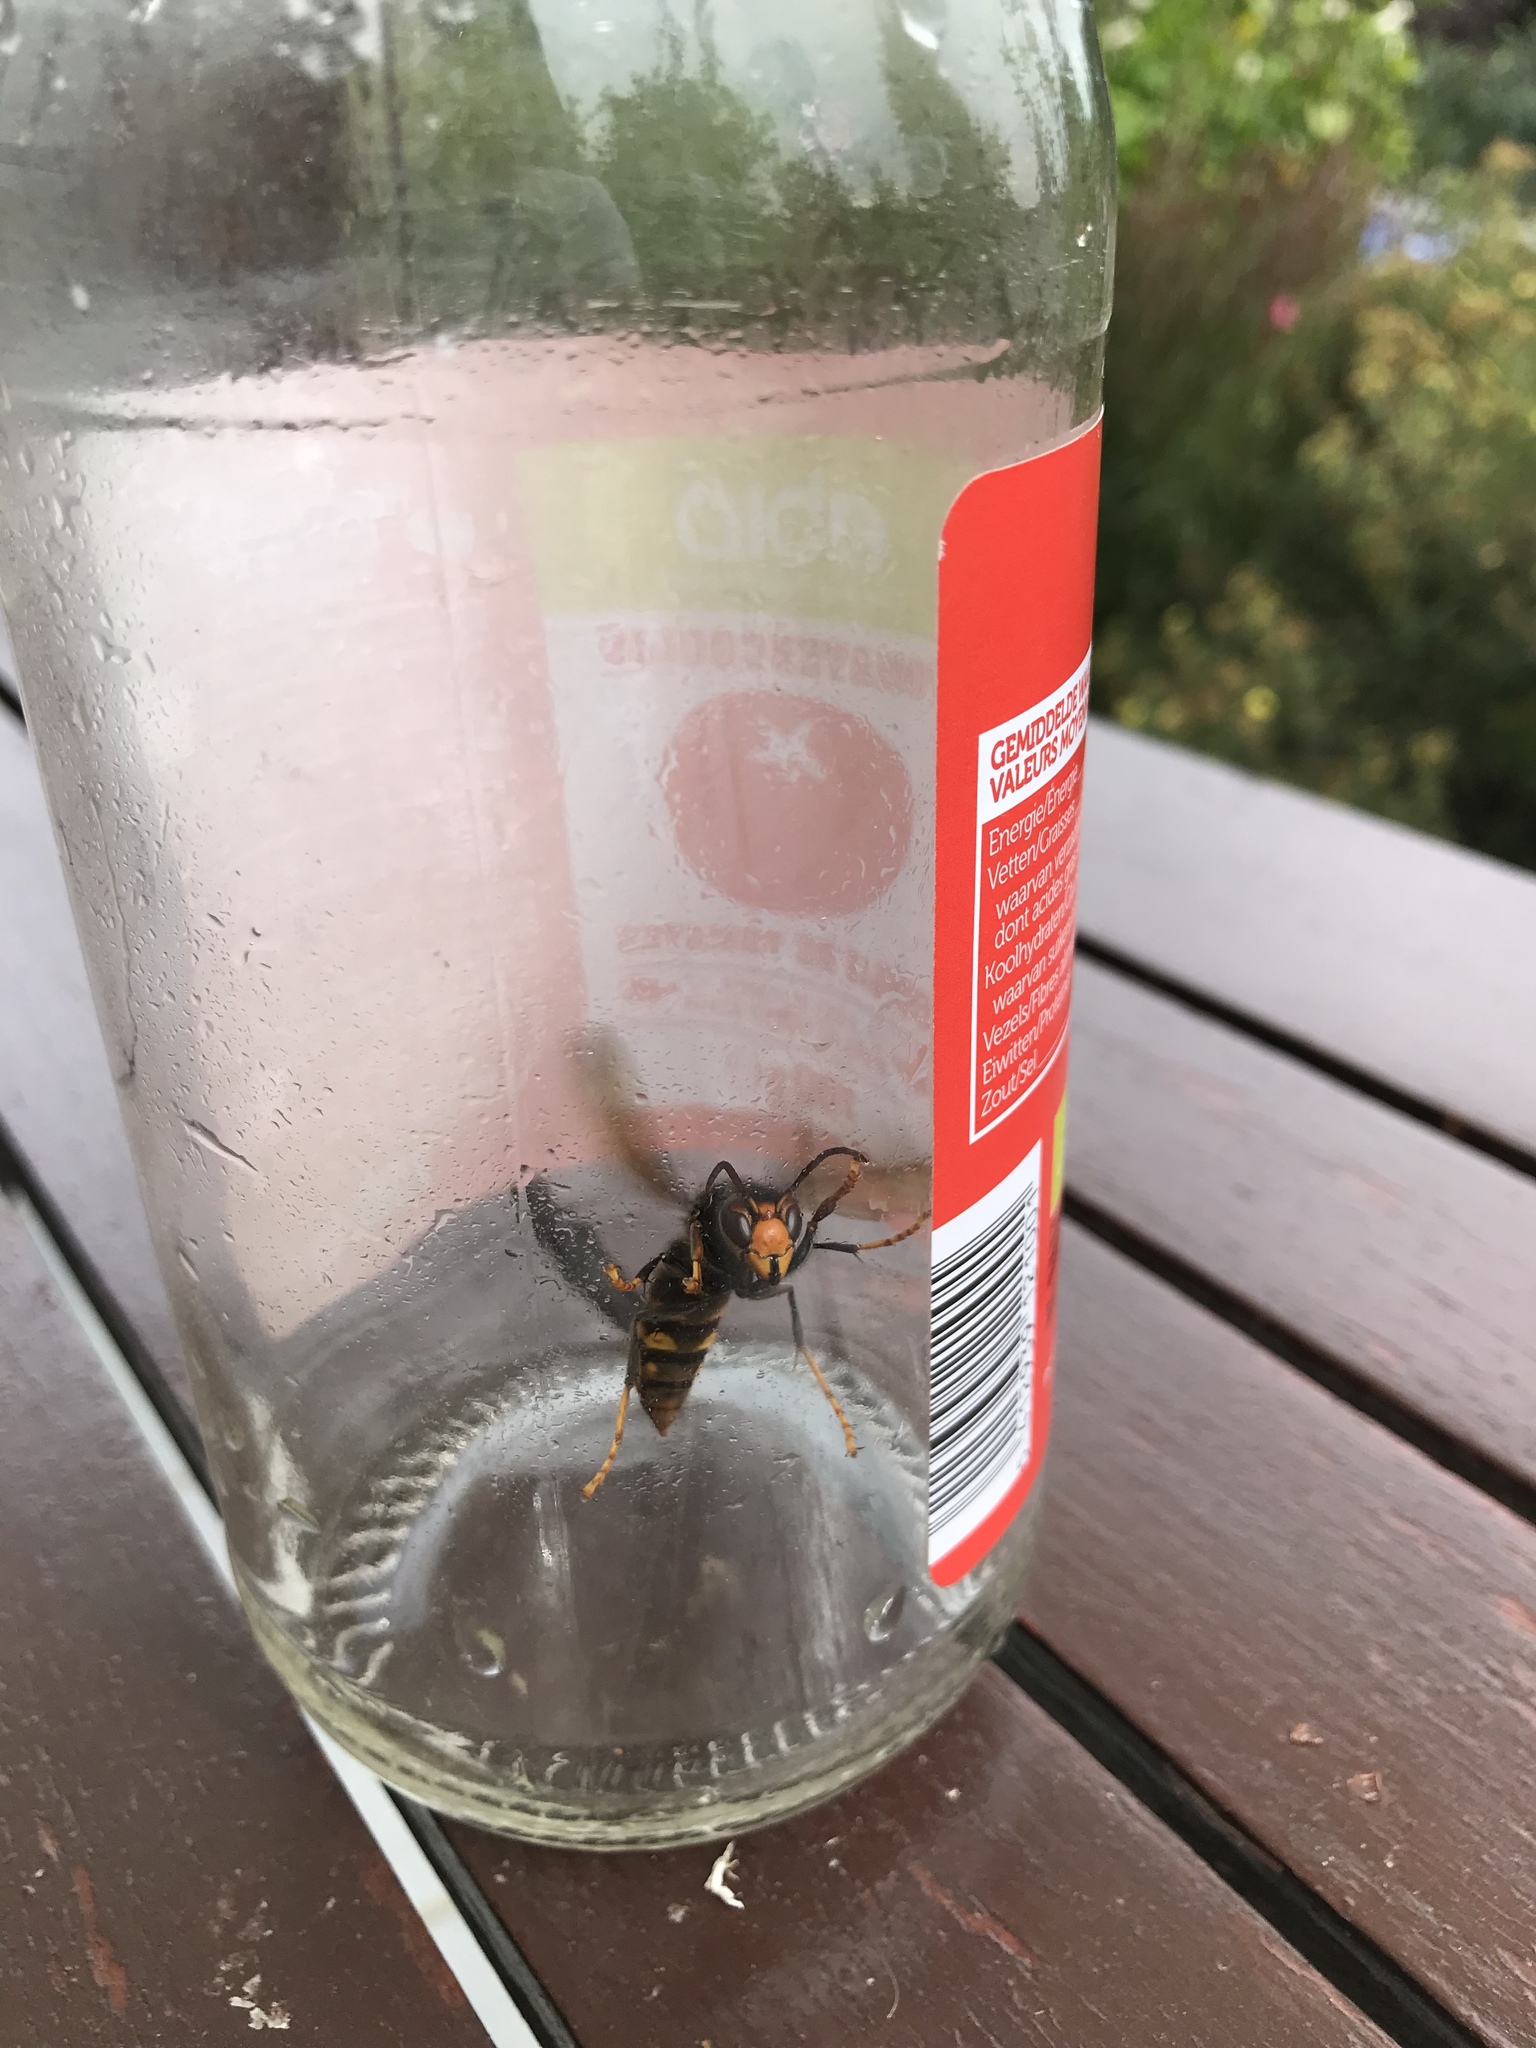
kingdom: Animalia
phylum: Arthropoda
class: Insecta
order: Hymenoptera
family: Vespidae
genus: Vespa
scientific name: Vespa velutina
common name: Asian hornet
